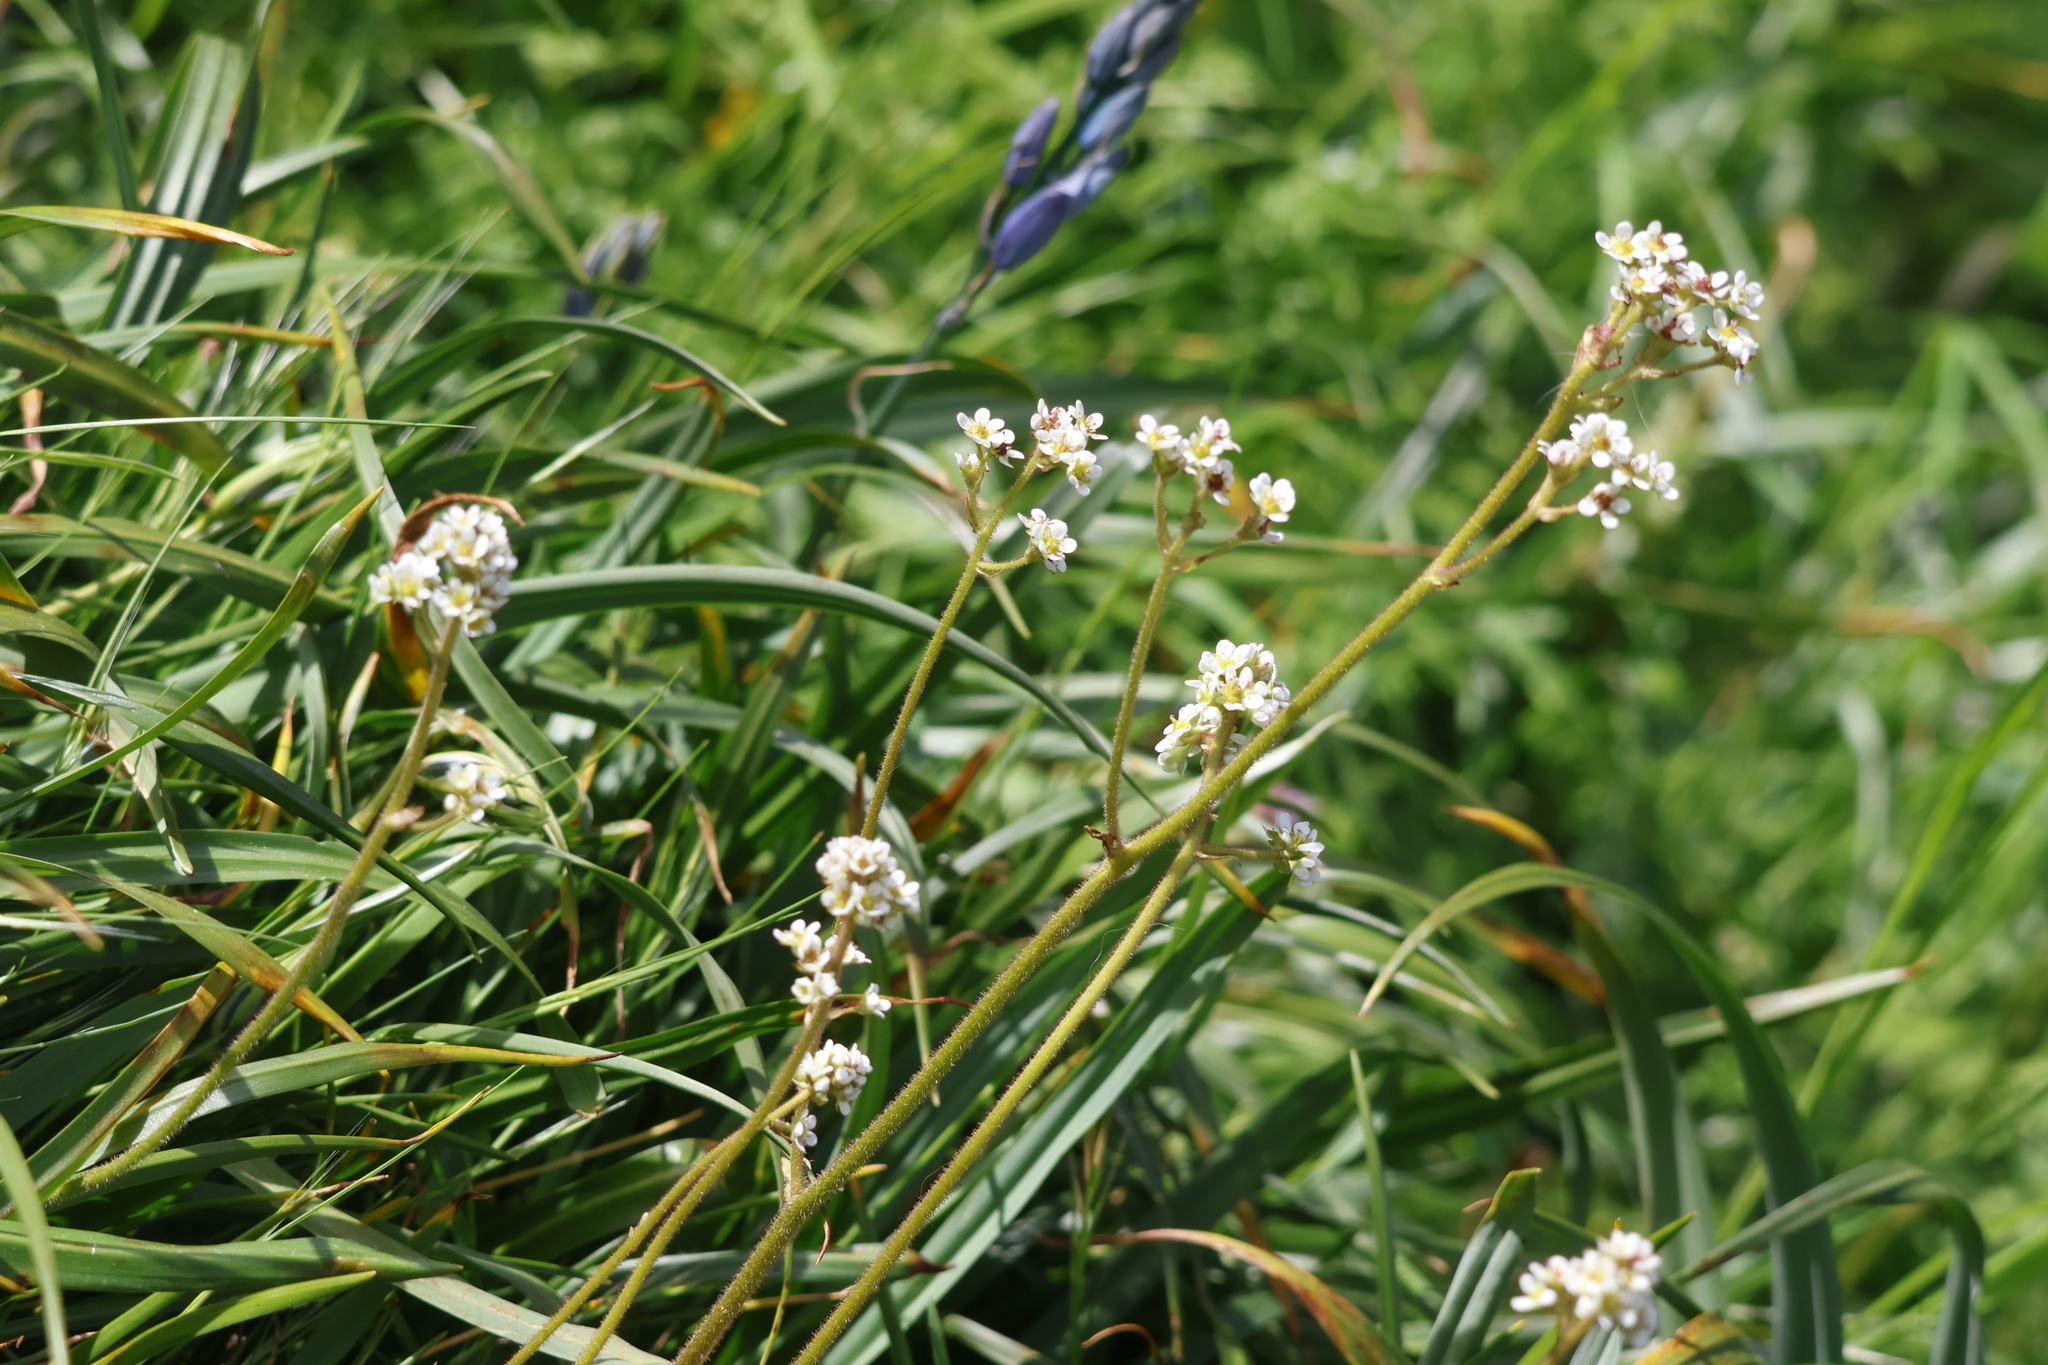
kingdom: Plantae
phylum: Tracheophyta
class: Magnoliopsida
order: Saxifragales
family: Saxifragaceae
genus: Micranthes
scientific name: Micranthes integrifolia
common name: Wholeleaf saxifrage
